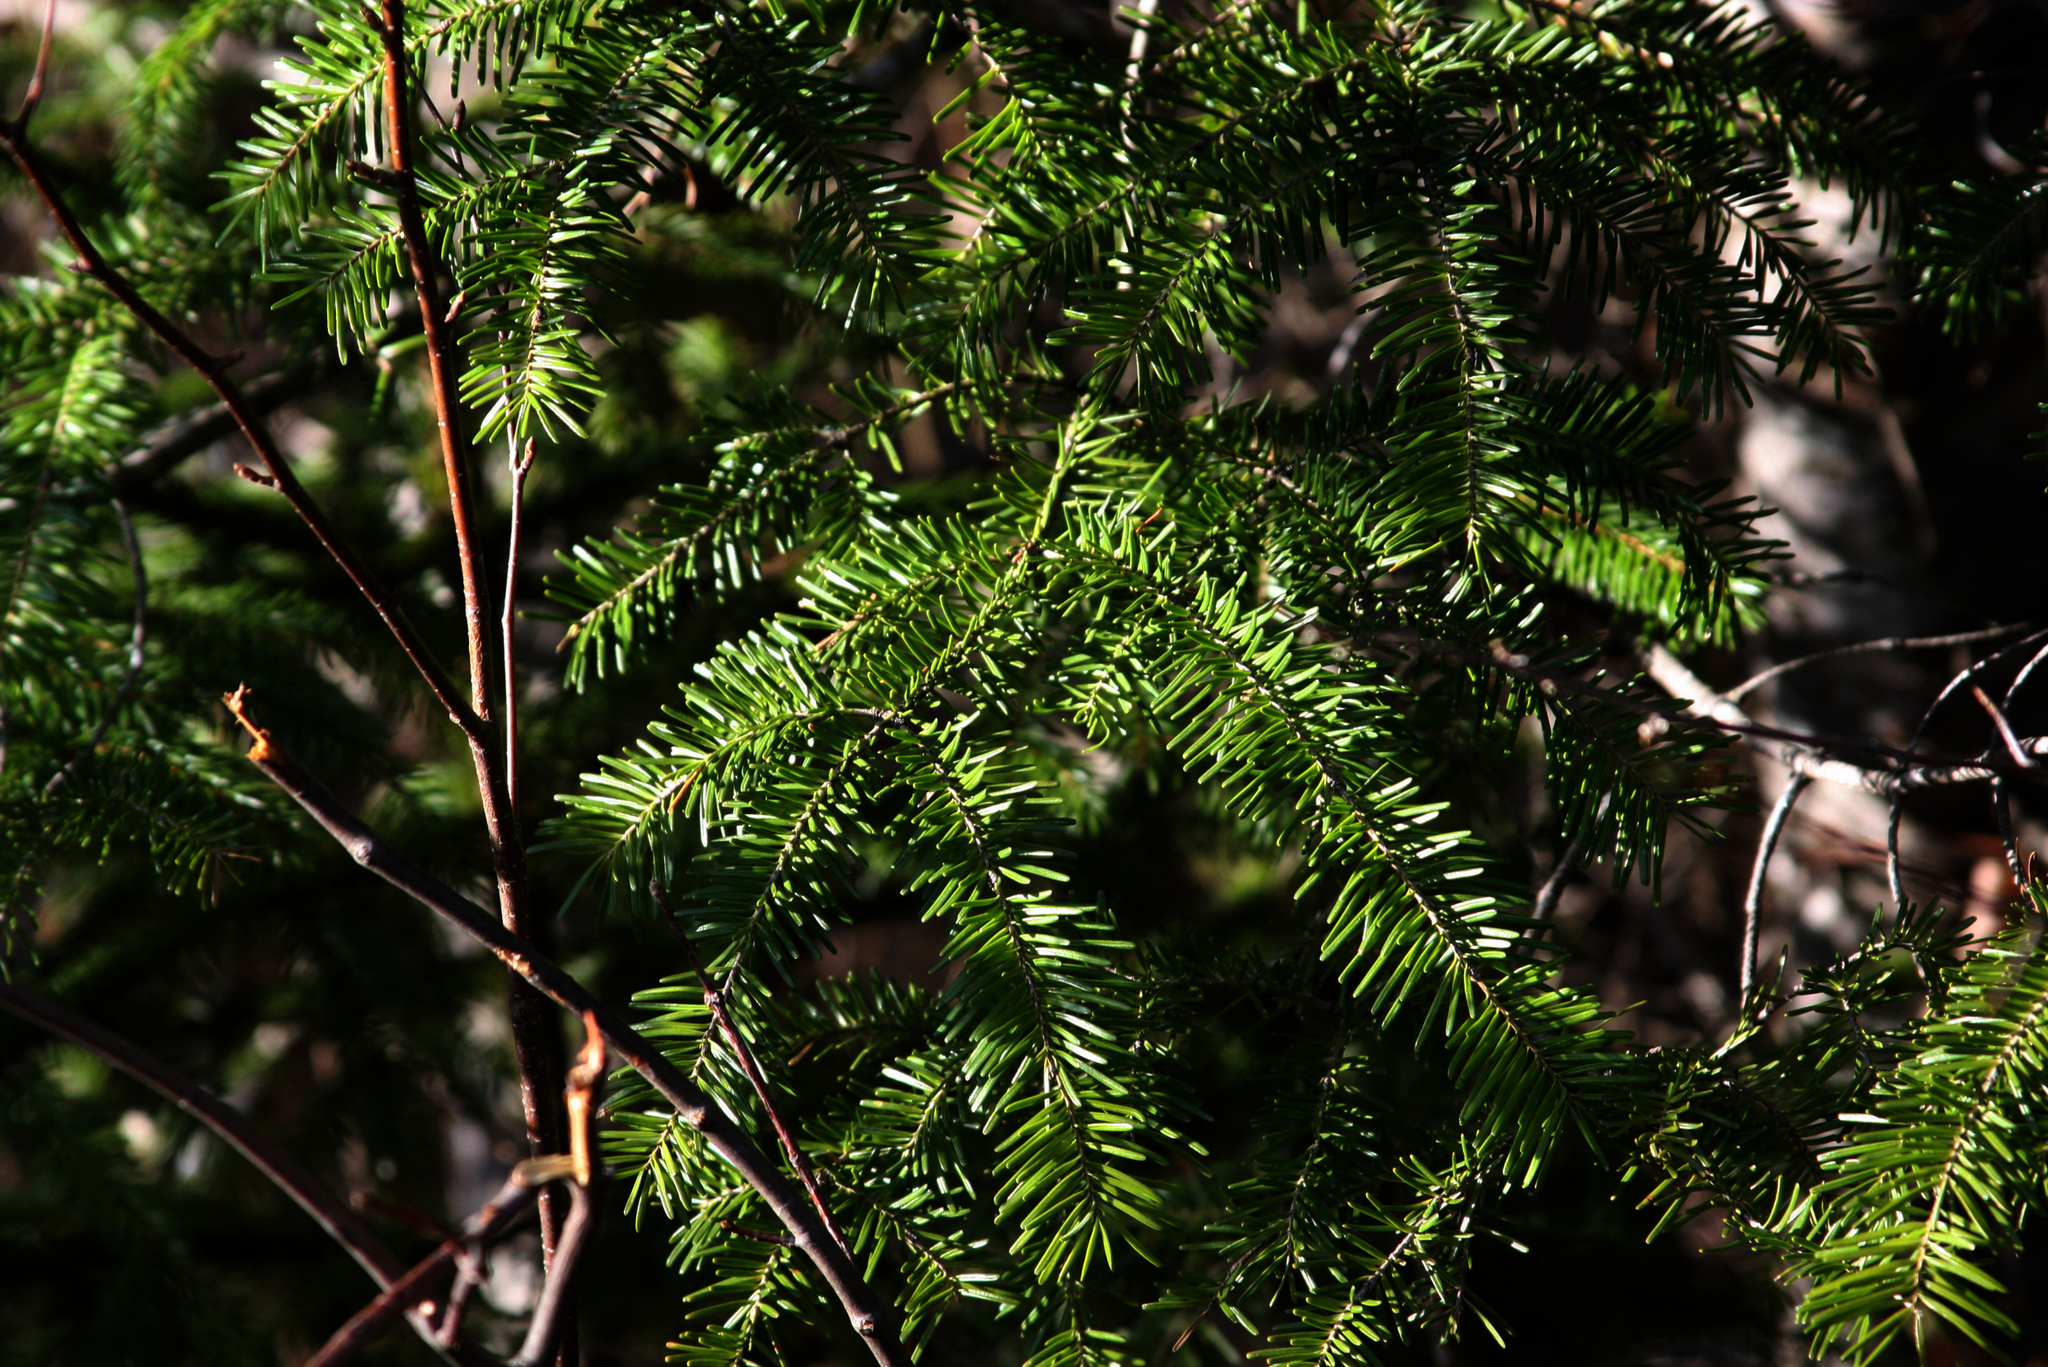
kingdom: Plantae
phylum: Tracheophyta
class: Pinopsida
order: Pinales
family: Pinaceae
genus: Abies
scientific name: Abies balsamea
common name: Balsam fir
